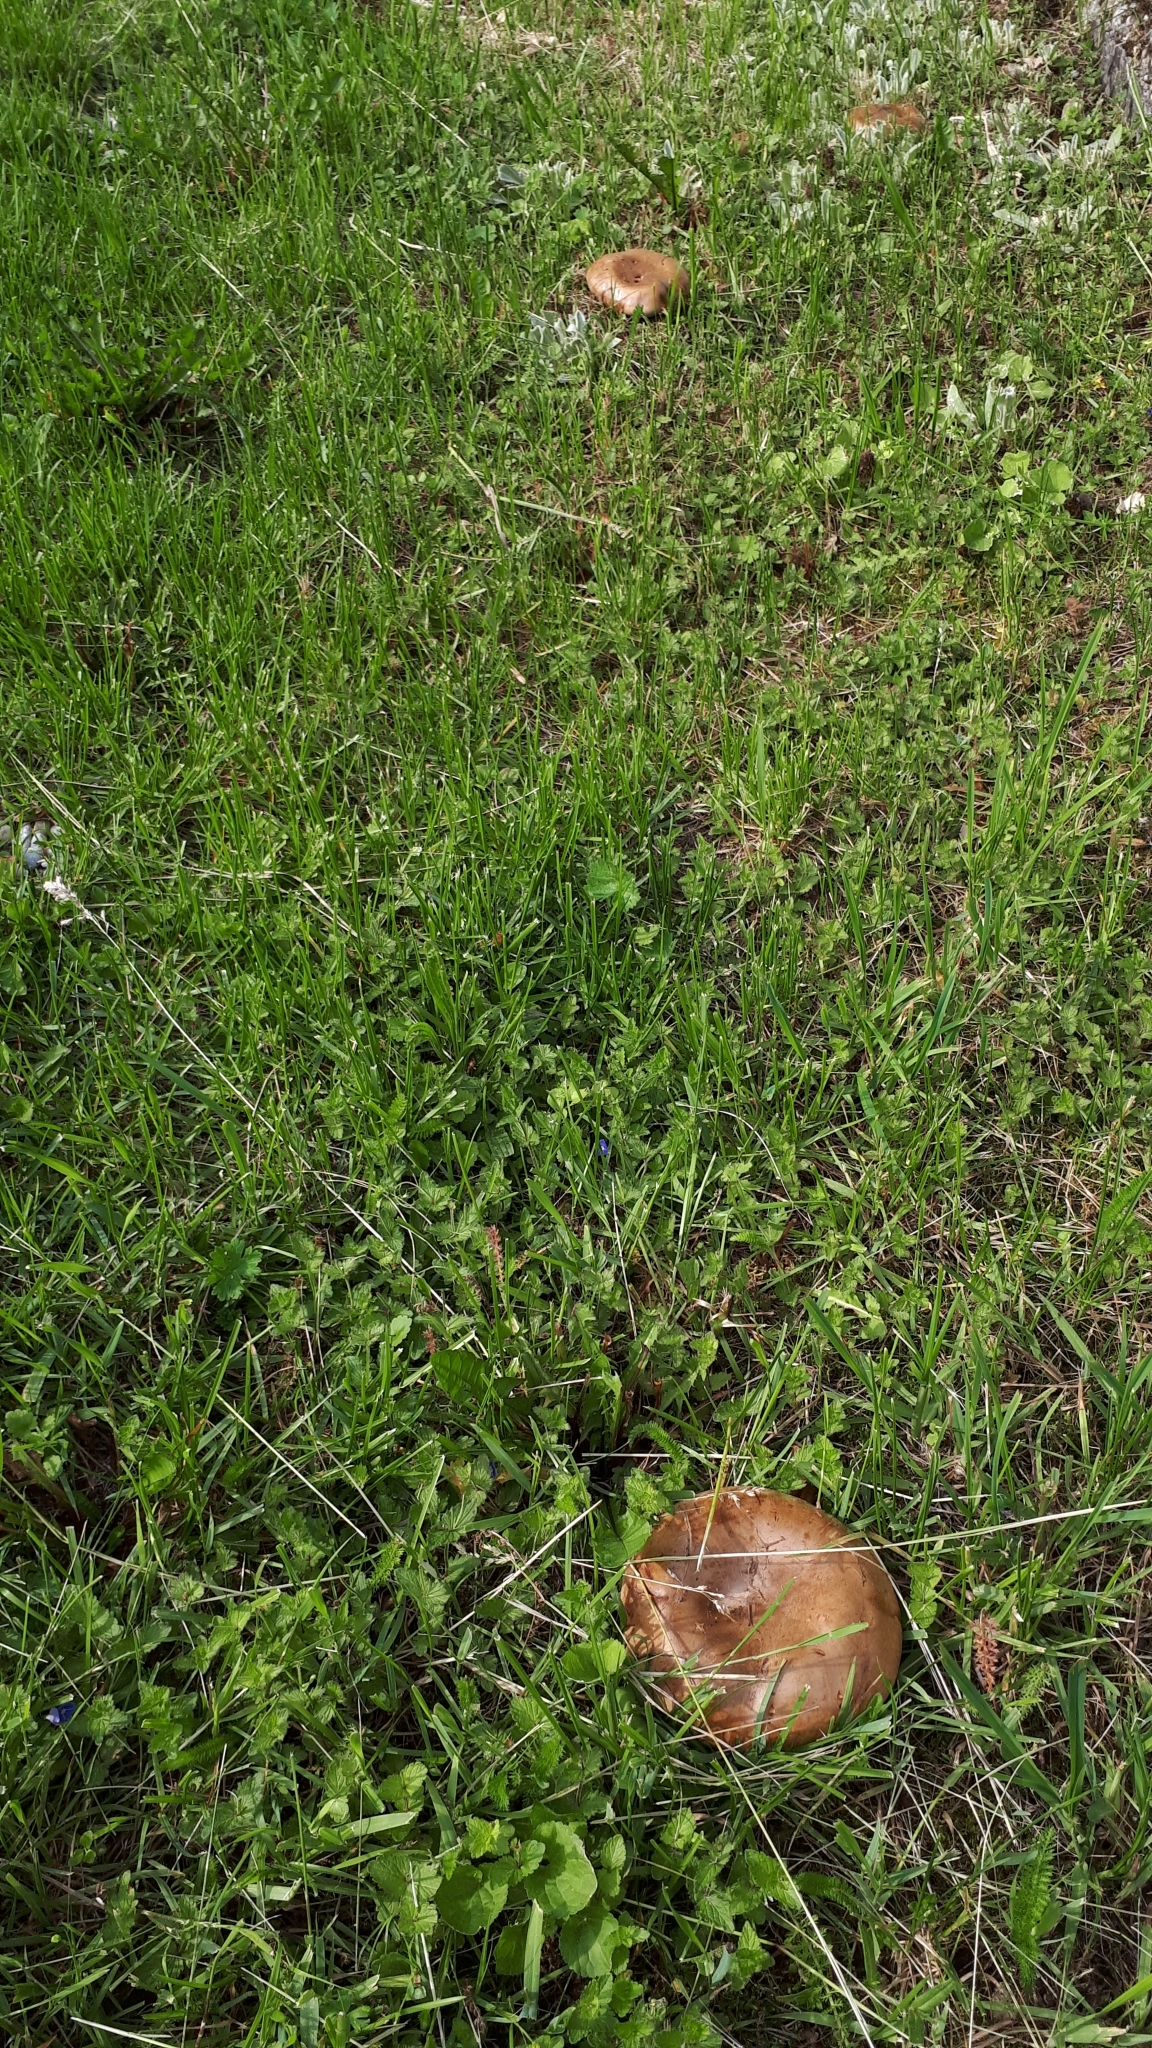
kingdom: Fungi
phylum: Basidiomycota
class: Agaricomycetes
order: Boletales
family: Paxillaceae
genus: Paxillus
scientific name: Paxillus involutus
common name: Brown roll rim
